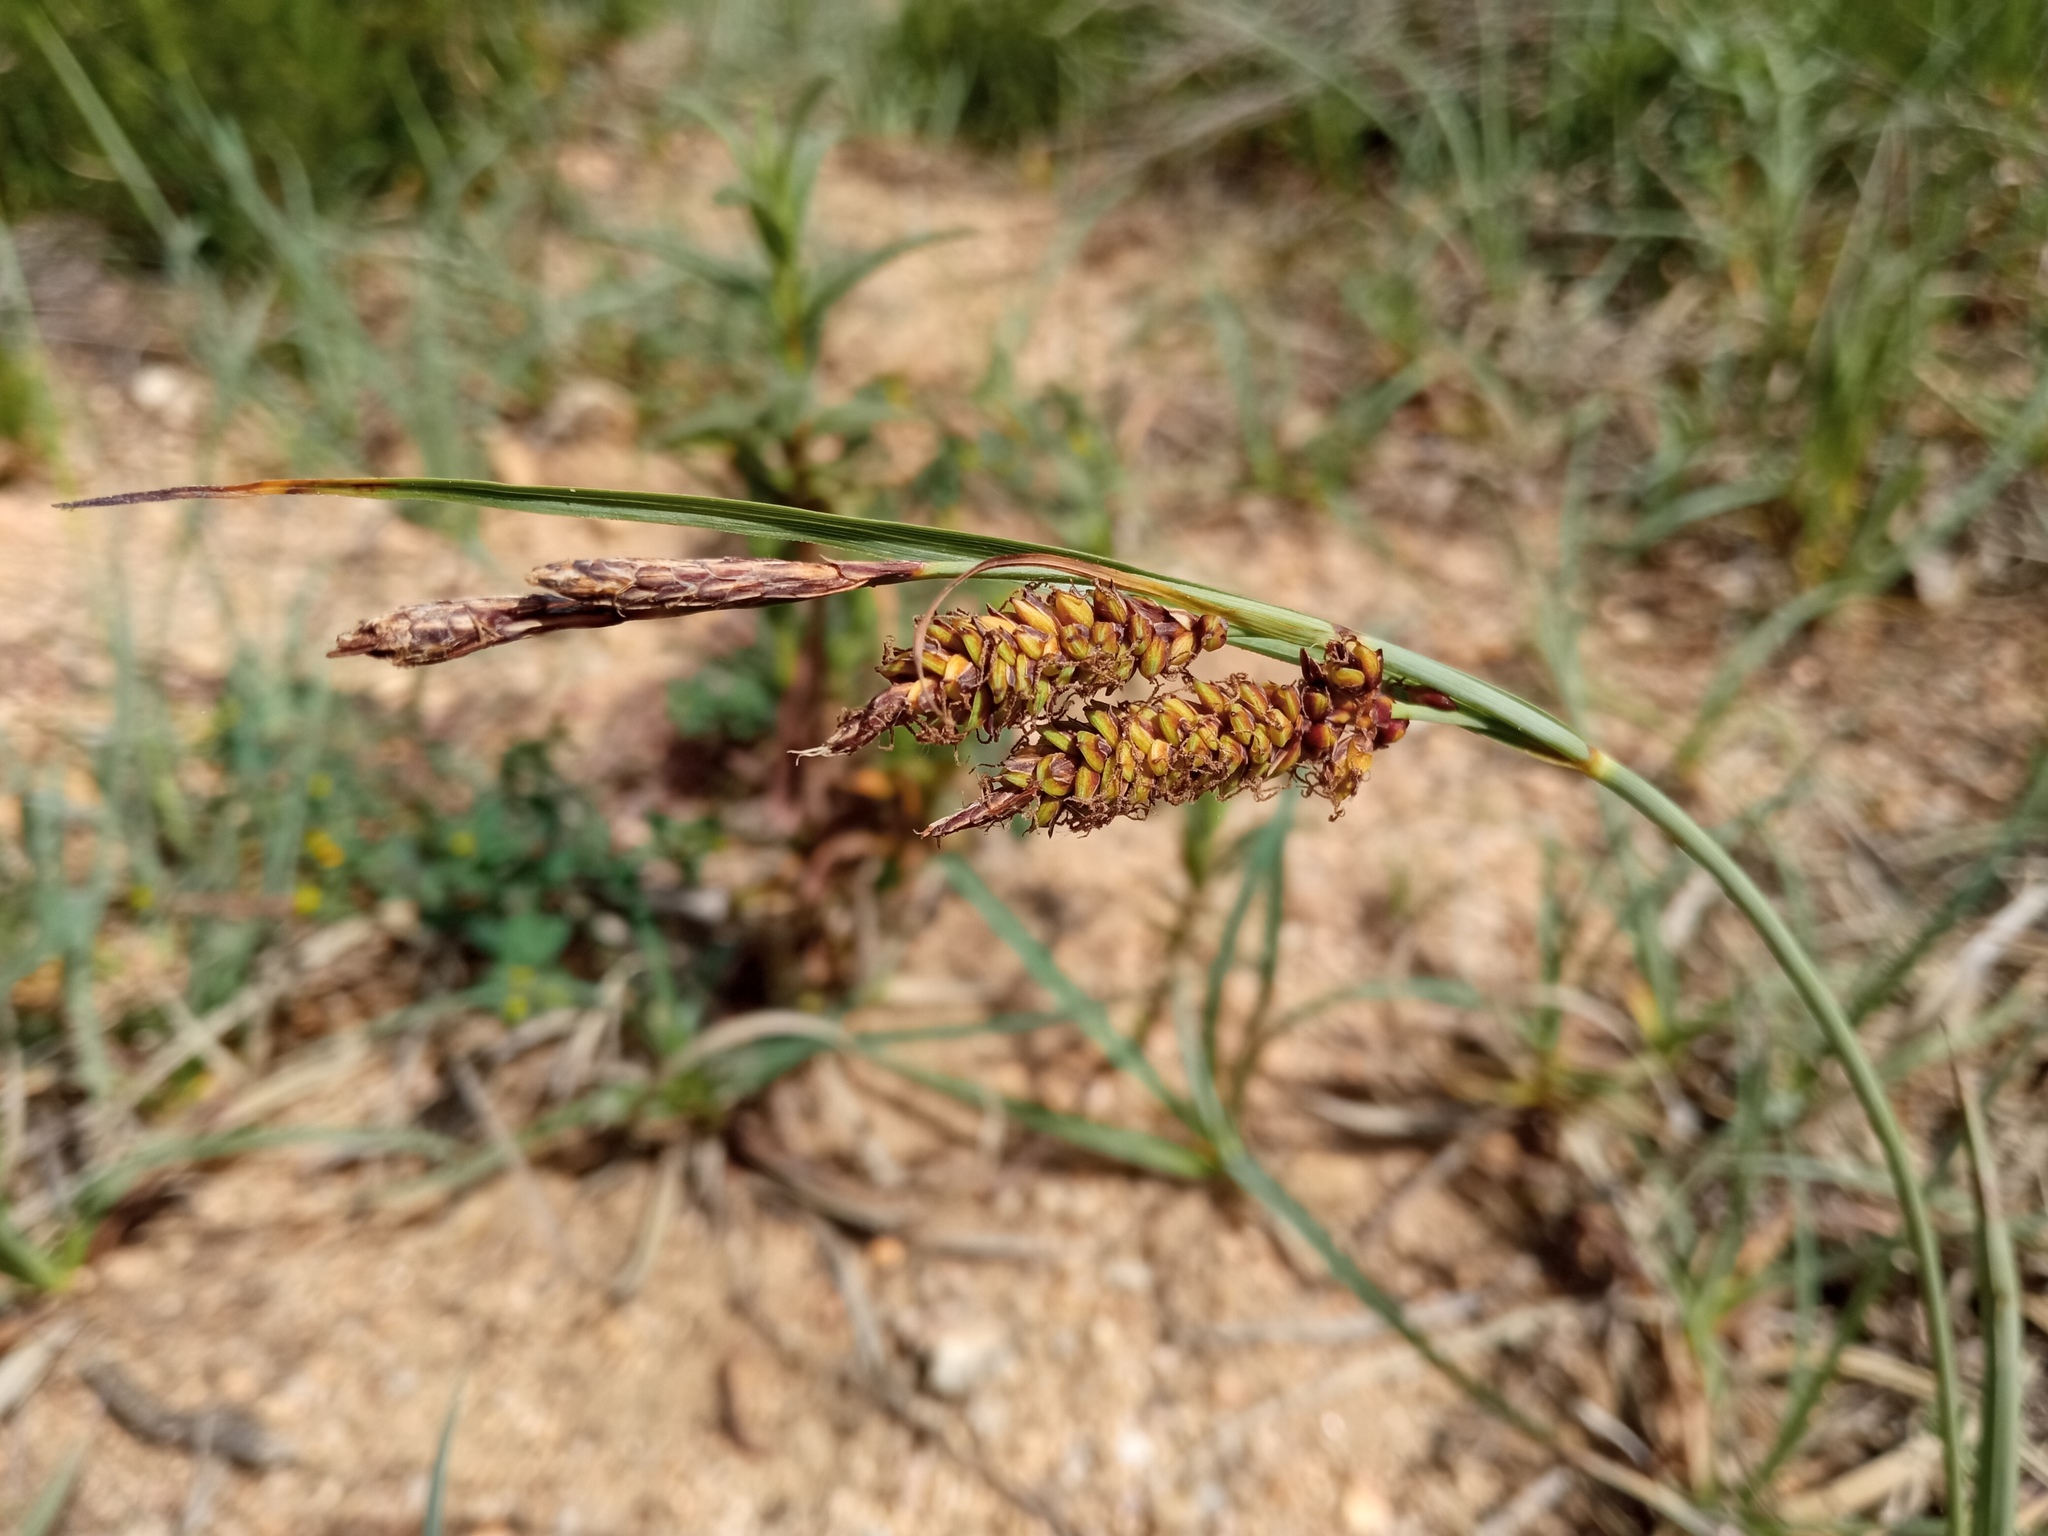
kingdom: Plantae
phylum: Tracheophyta
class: Liliopsida
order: Poales
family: Cyperaceae
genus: Carex
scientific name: Carex flacca
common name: Glaucous sedge
